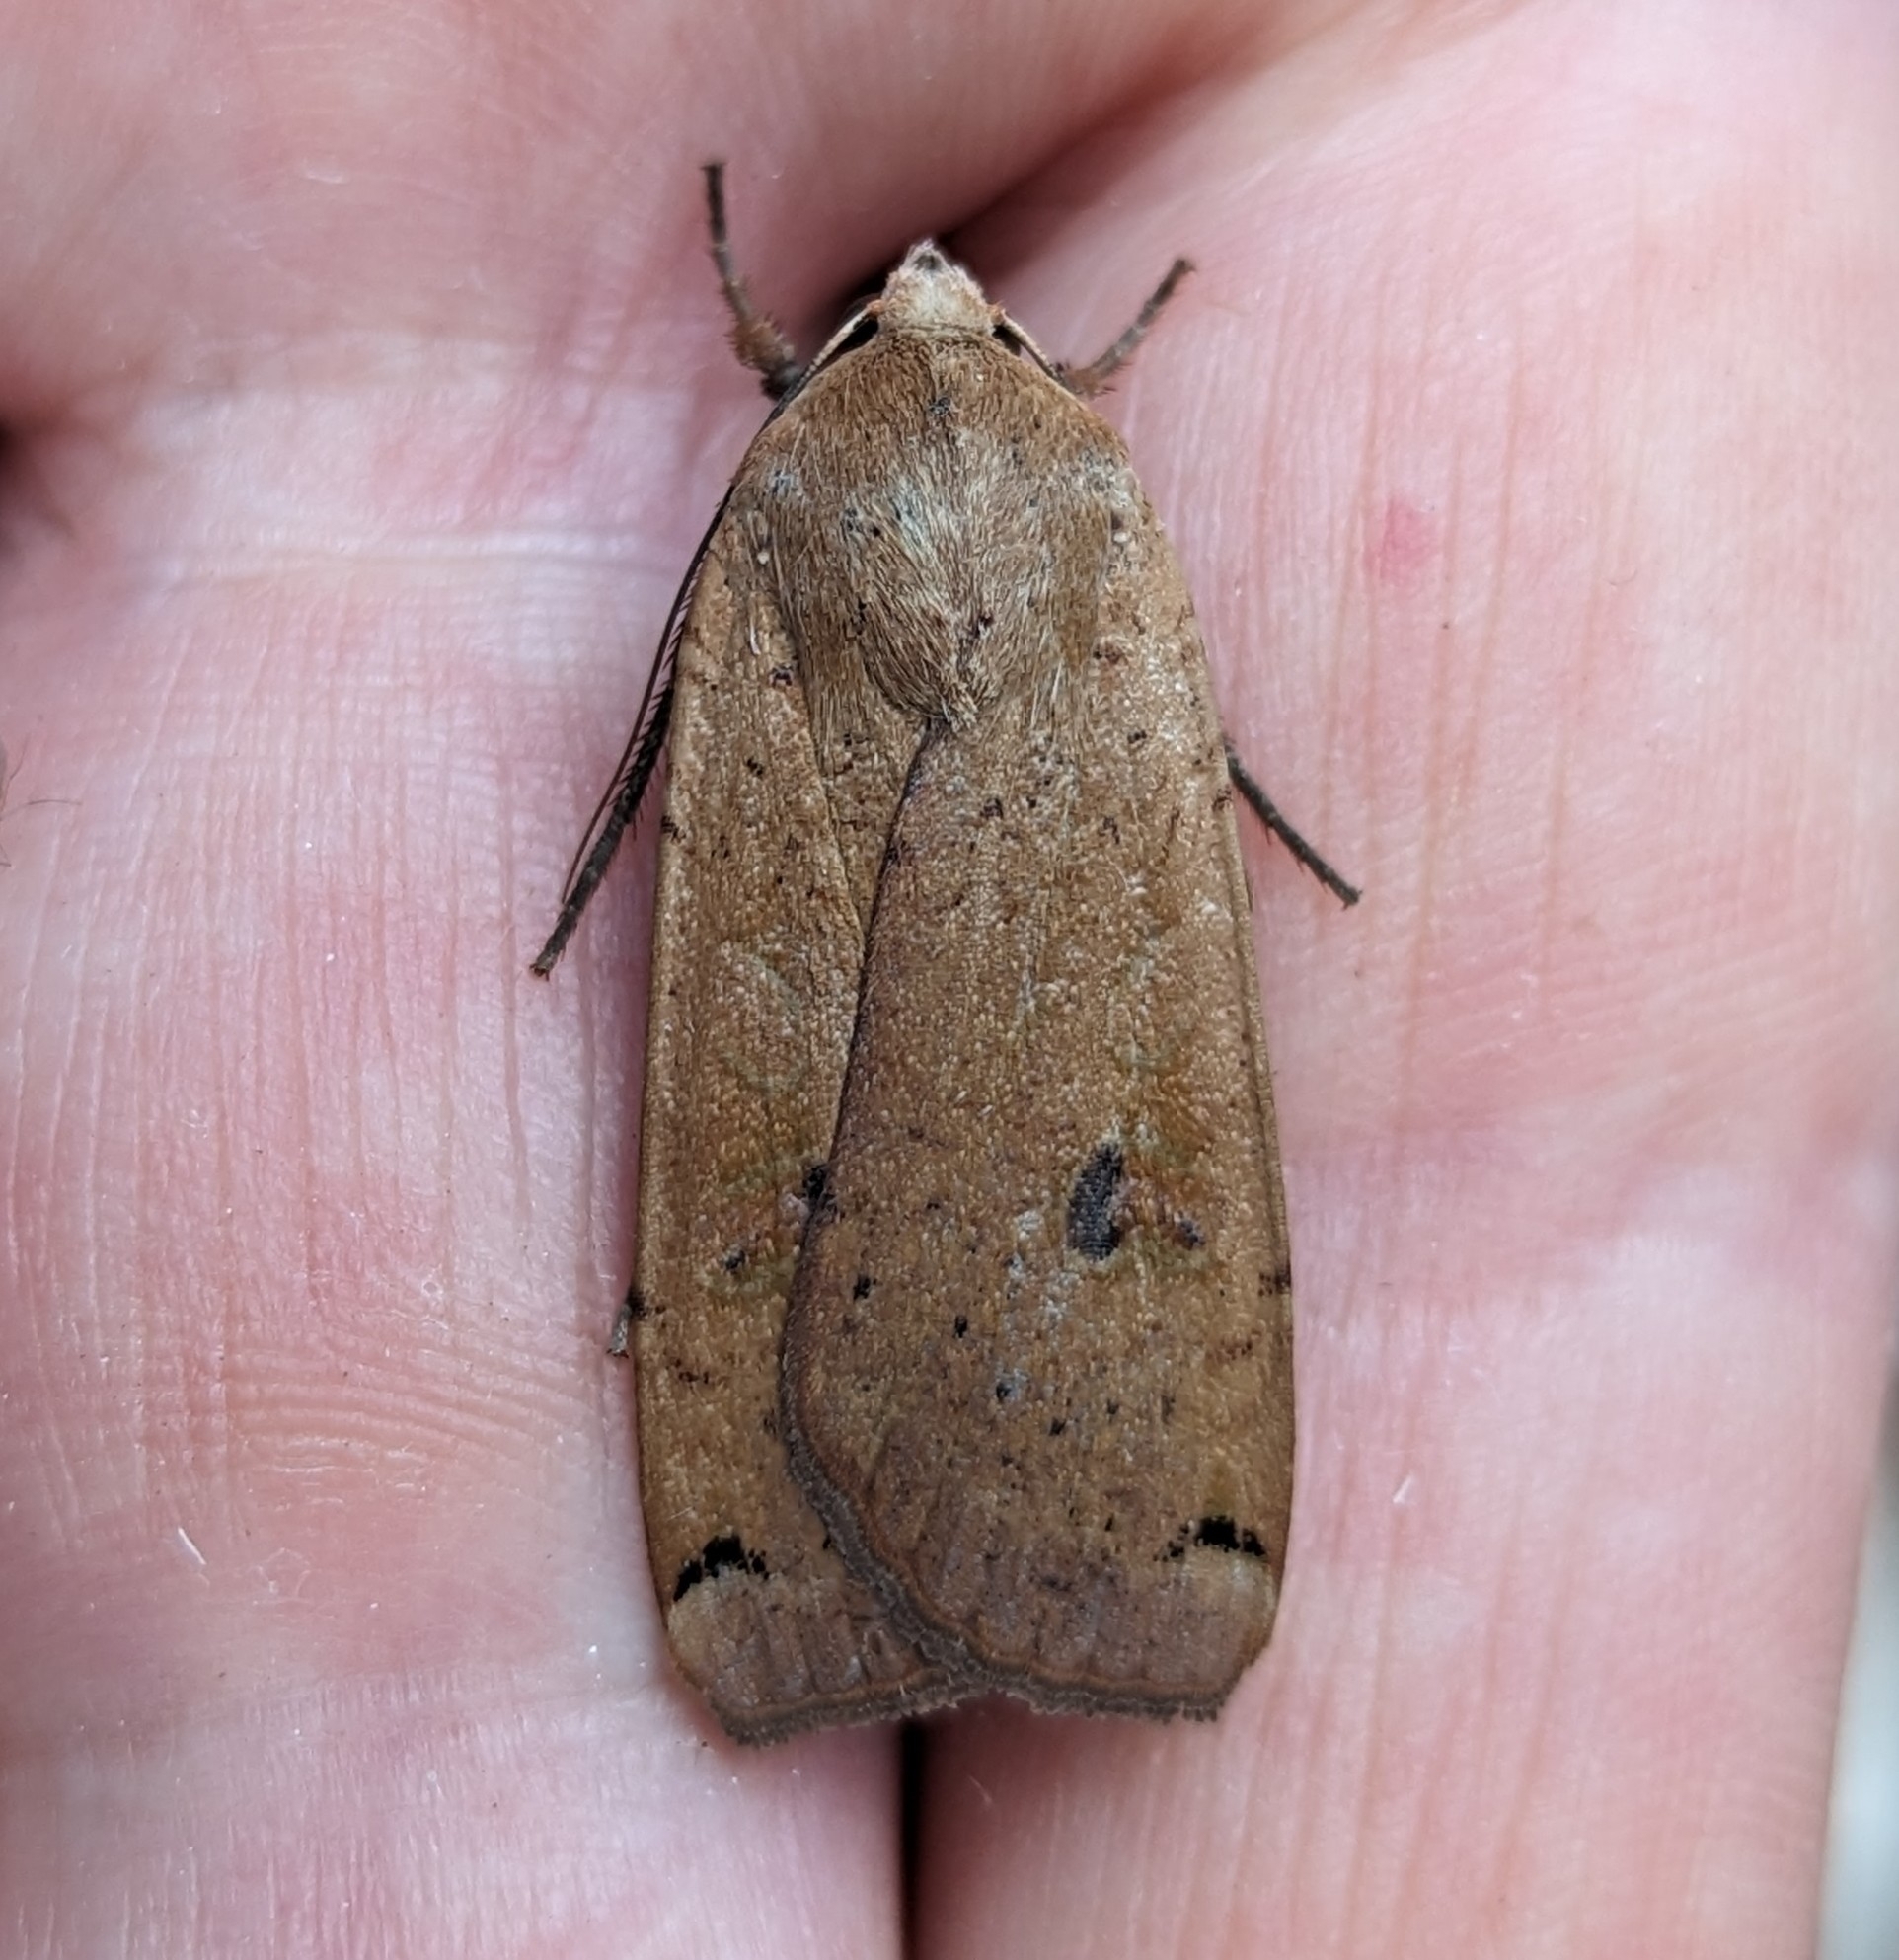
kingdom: Animalia
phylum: Arthropoda
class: Insecta
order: Lepidoptera
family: Noctuidae
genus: Noctua
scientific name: Noctua pronuba
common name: Large yellow underwing
